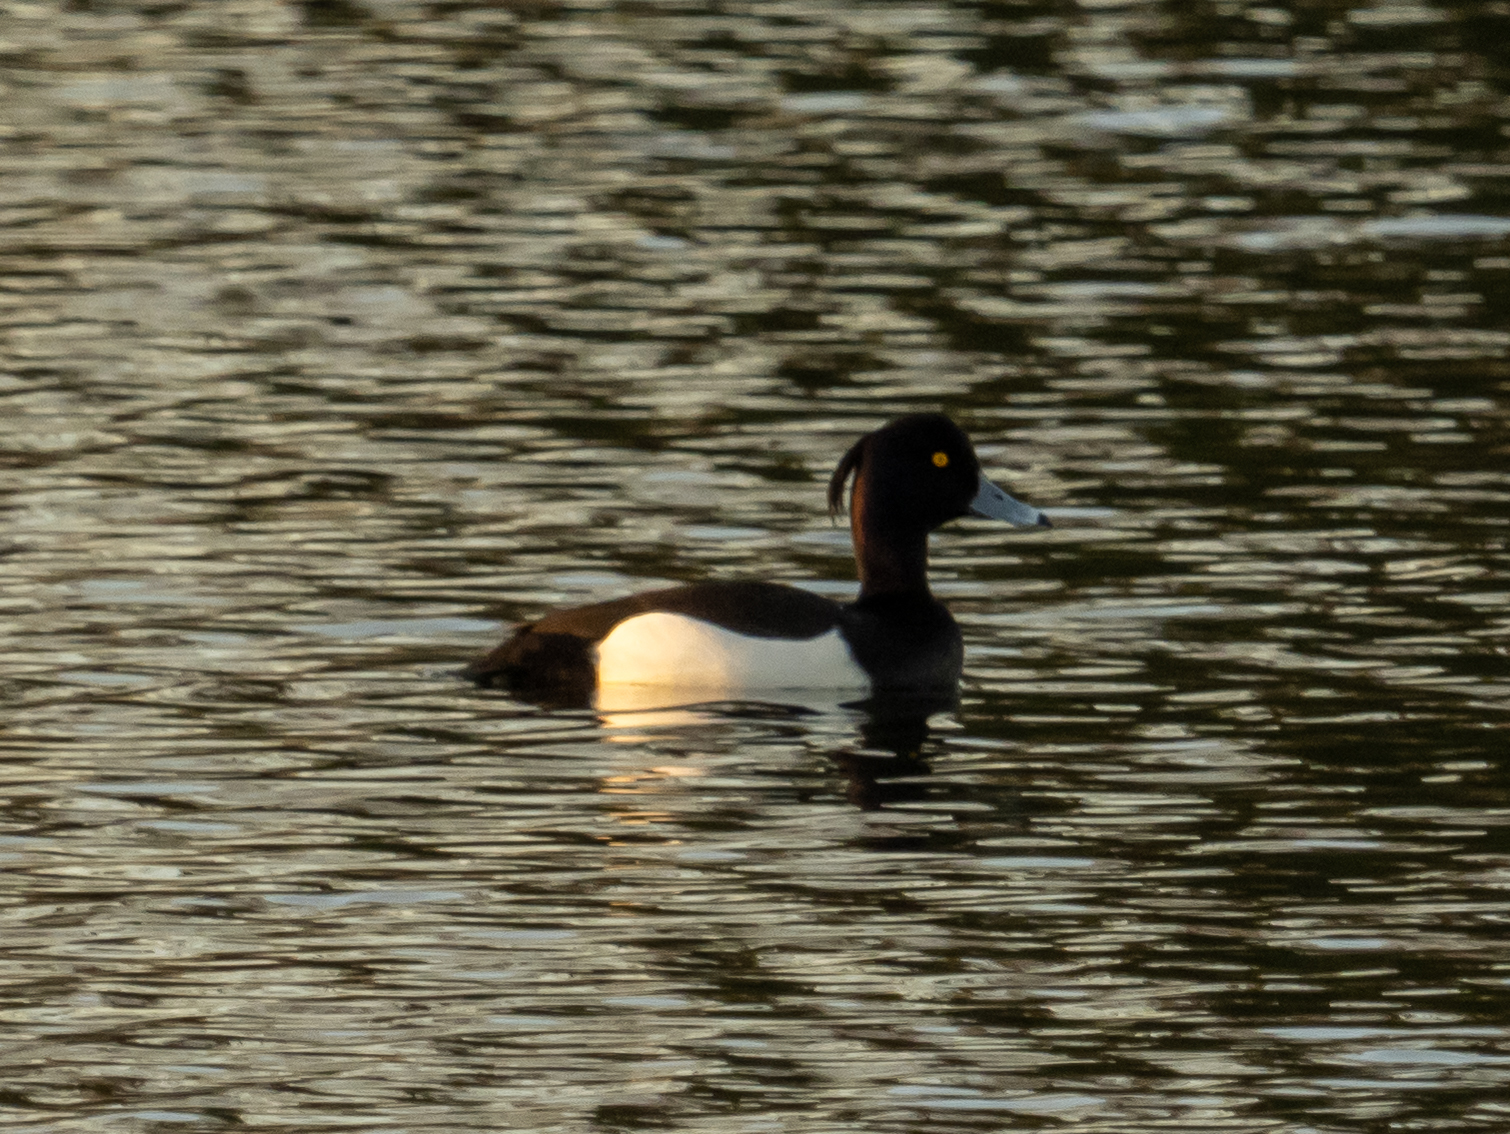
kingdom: Animalia
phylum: Chordata
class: Aves
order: Anseriformes
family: Anatidae
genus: Aythya
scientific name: Aythya fuligula
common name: Tufted duck
